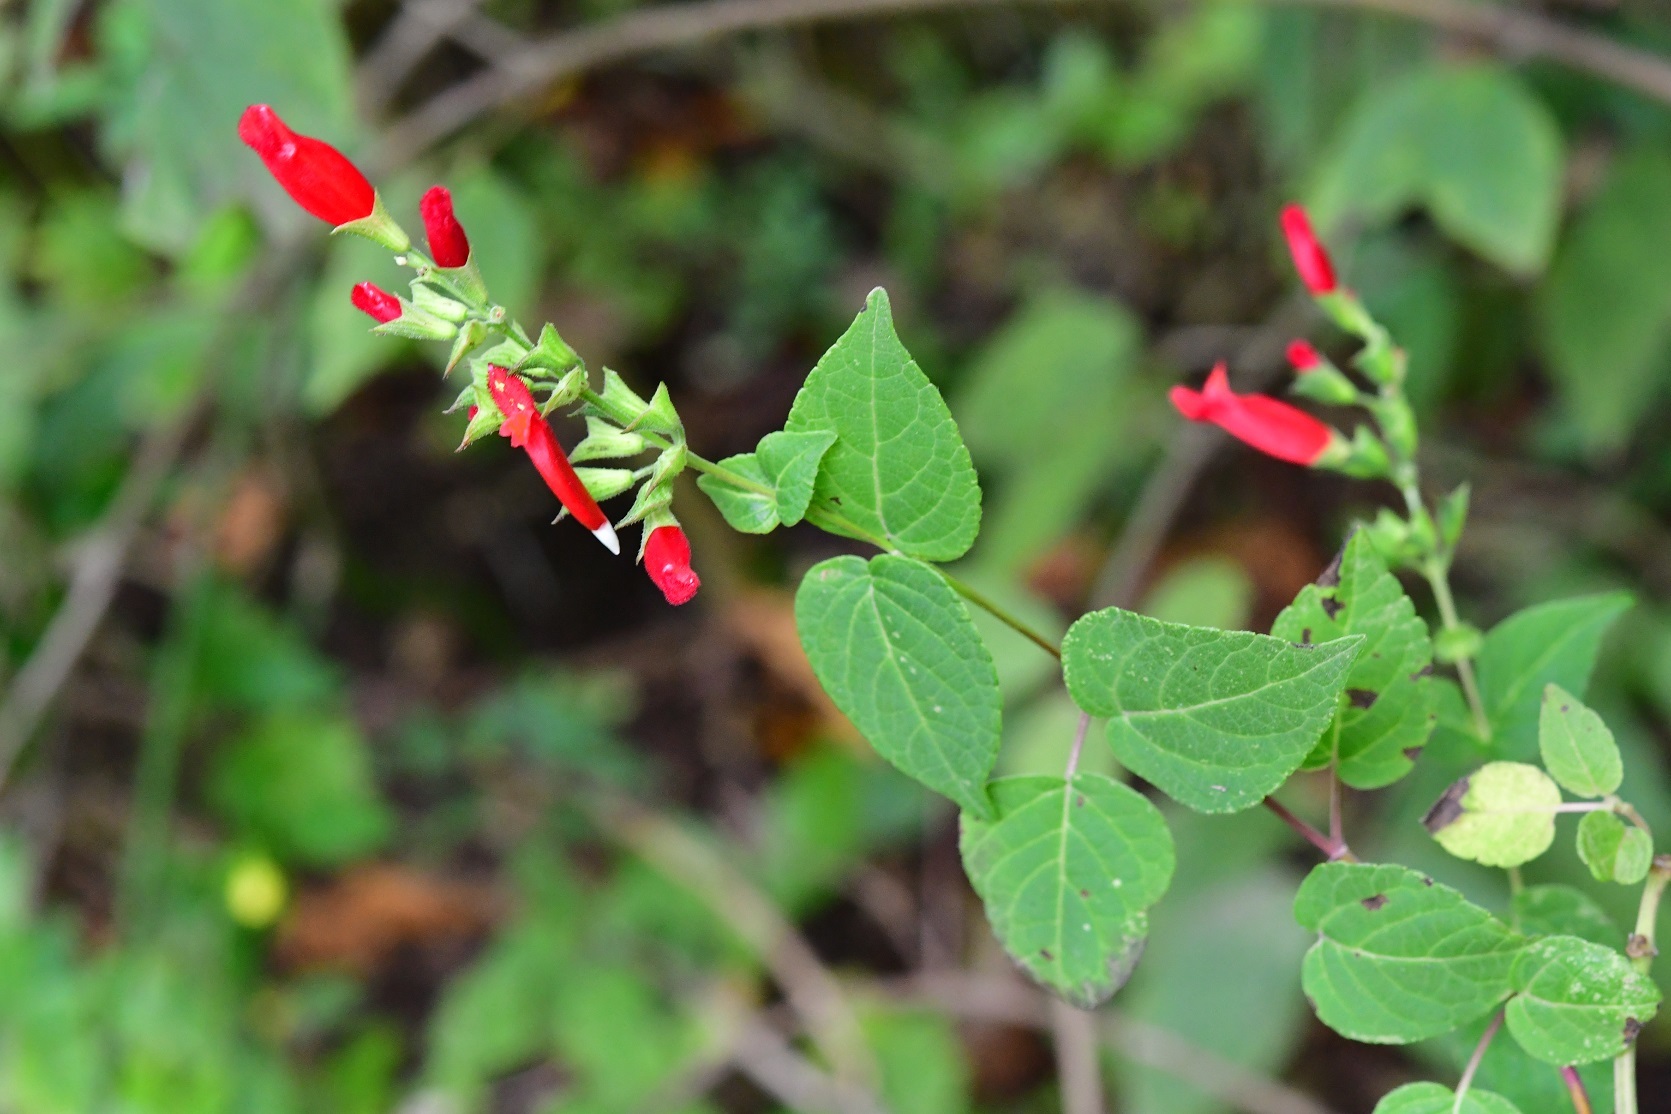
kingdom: Plantae
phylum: Tracheophyta
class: Magnoliopsida
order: Lamiales
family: Lamiaceae
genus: Salvia
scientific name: Salvia holwayi
